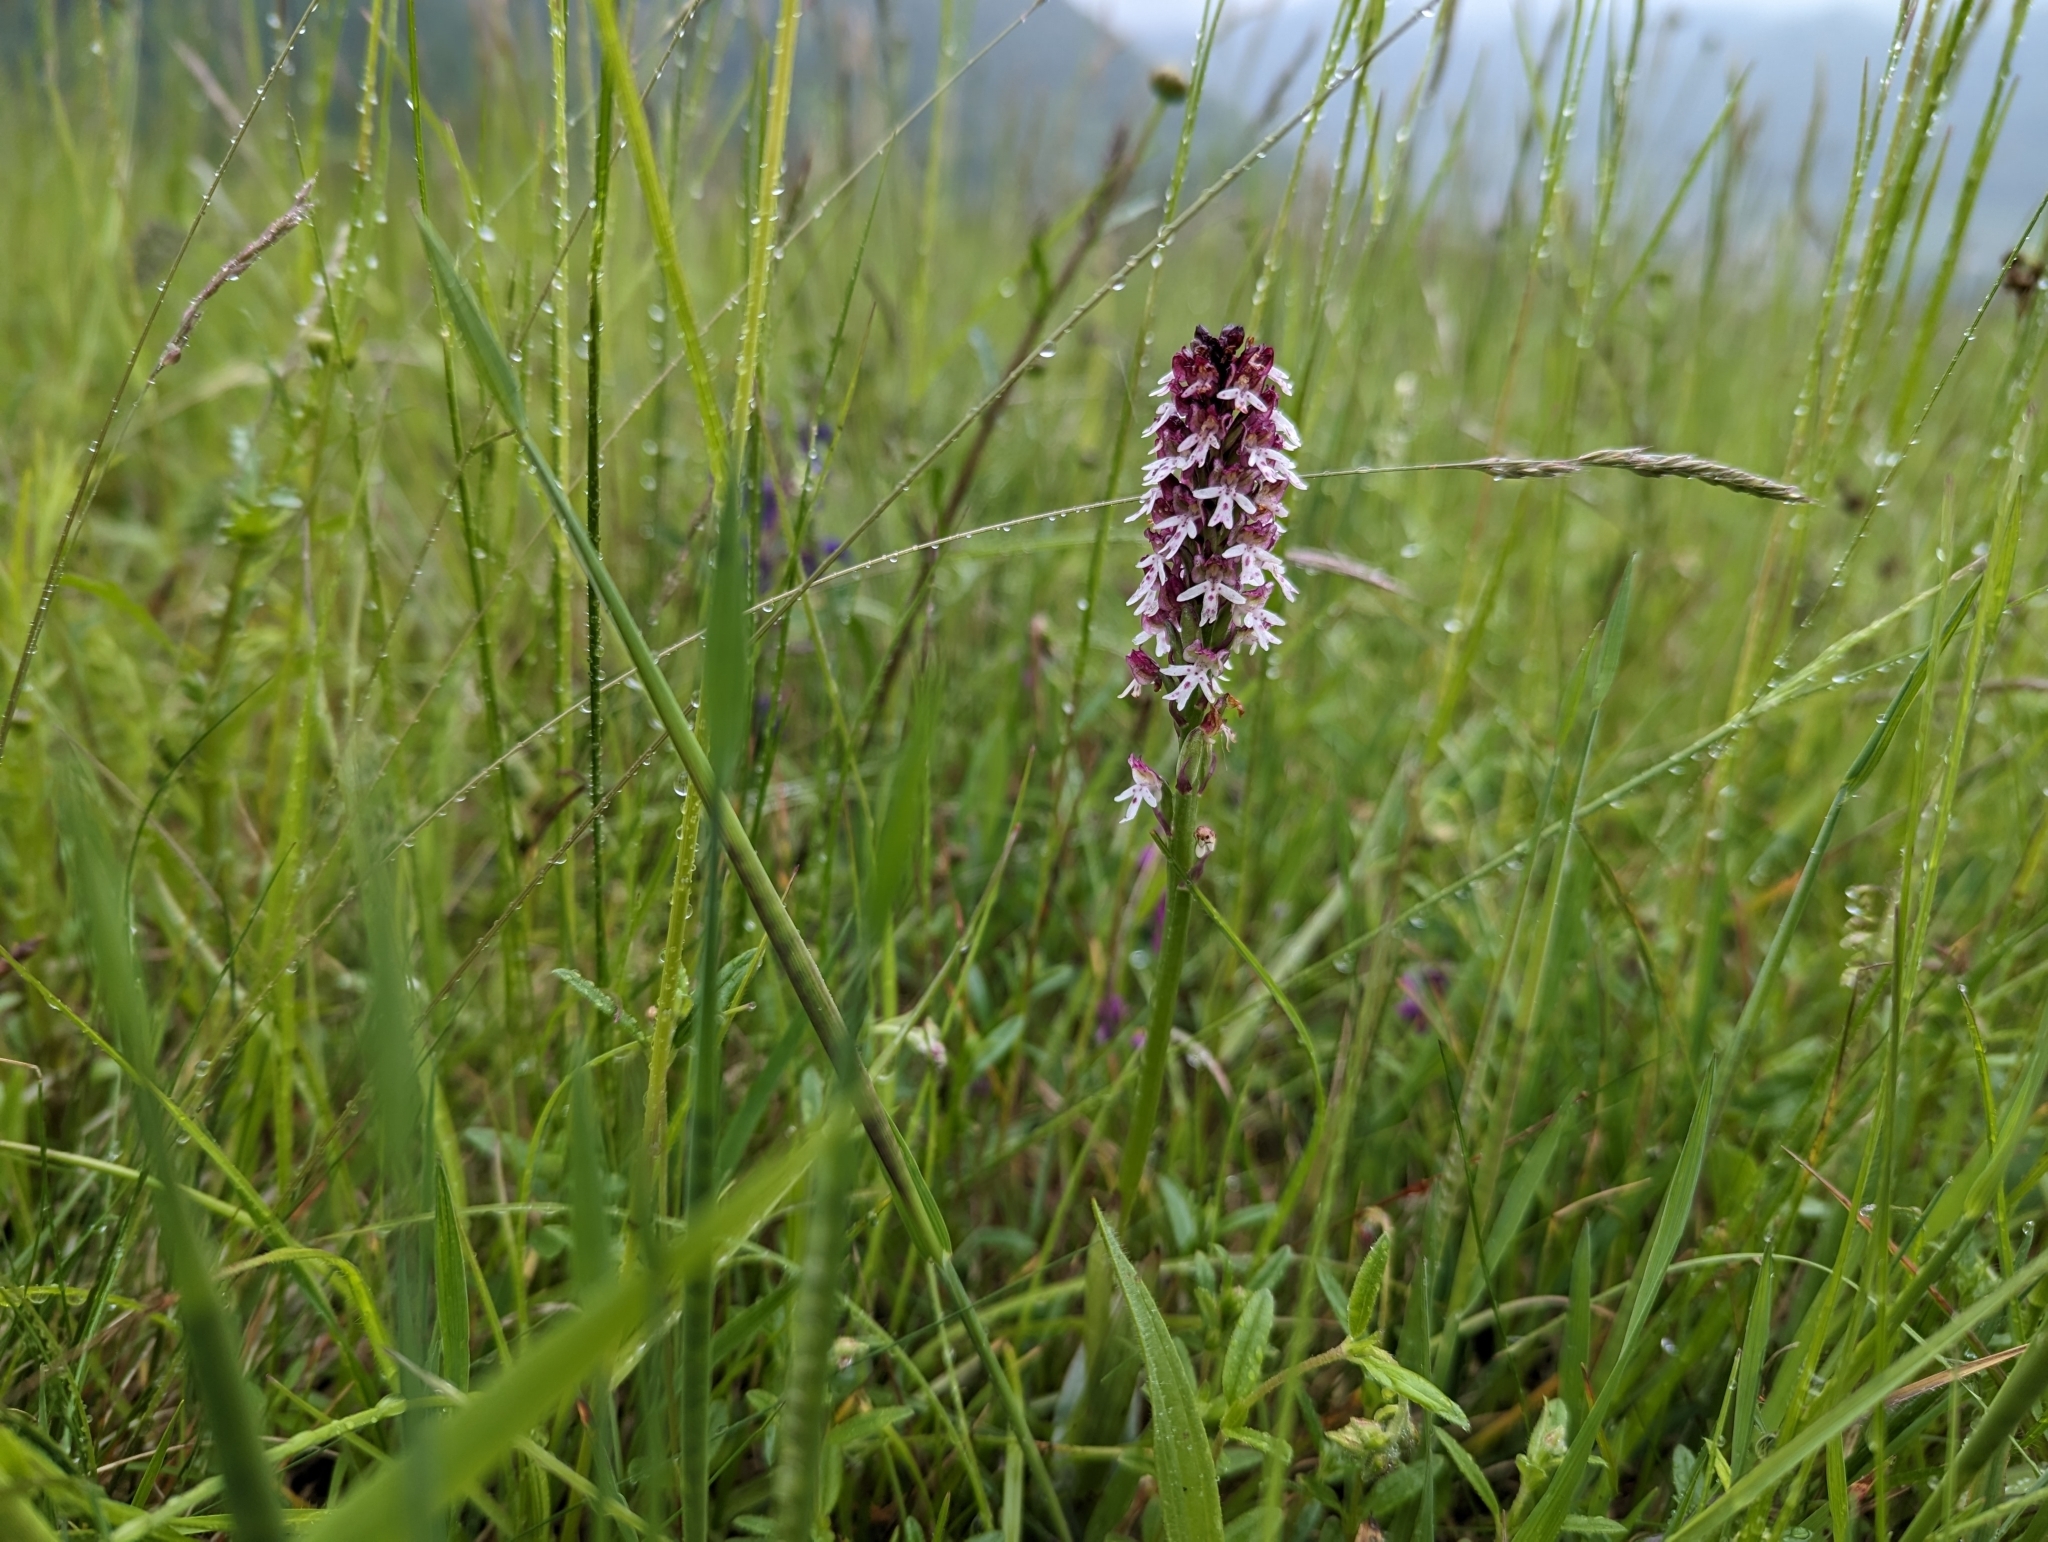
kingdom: Plantae
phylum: Tracheophyta
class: Liliopsida
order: Asparagales
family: Orchidaceae
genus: Neotinea
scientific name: Neotinea ustulata
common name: Burnt orchid
